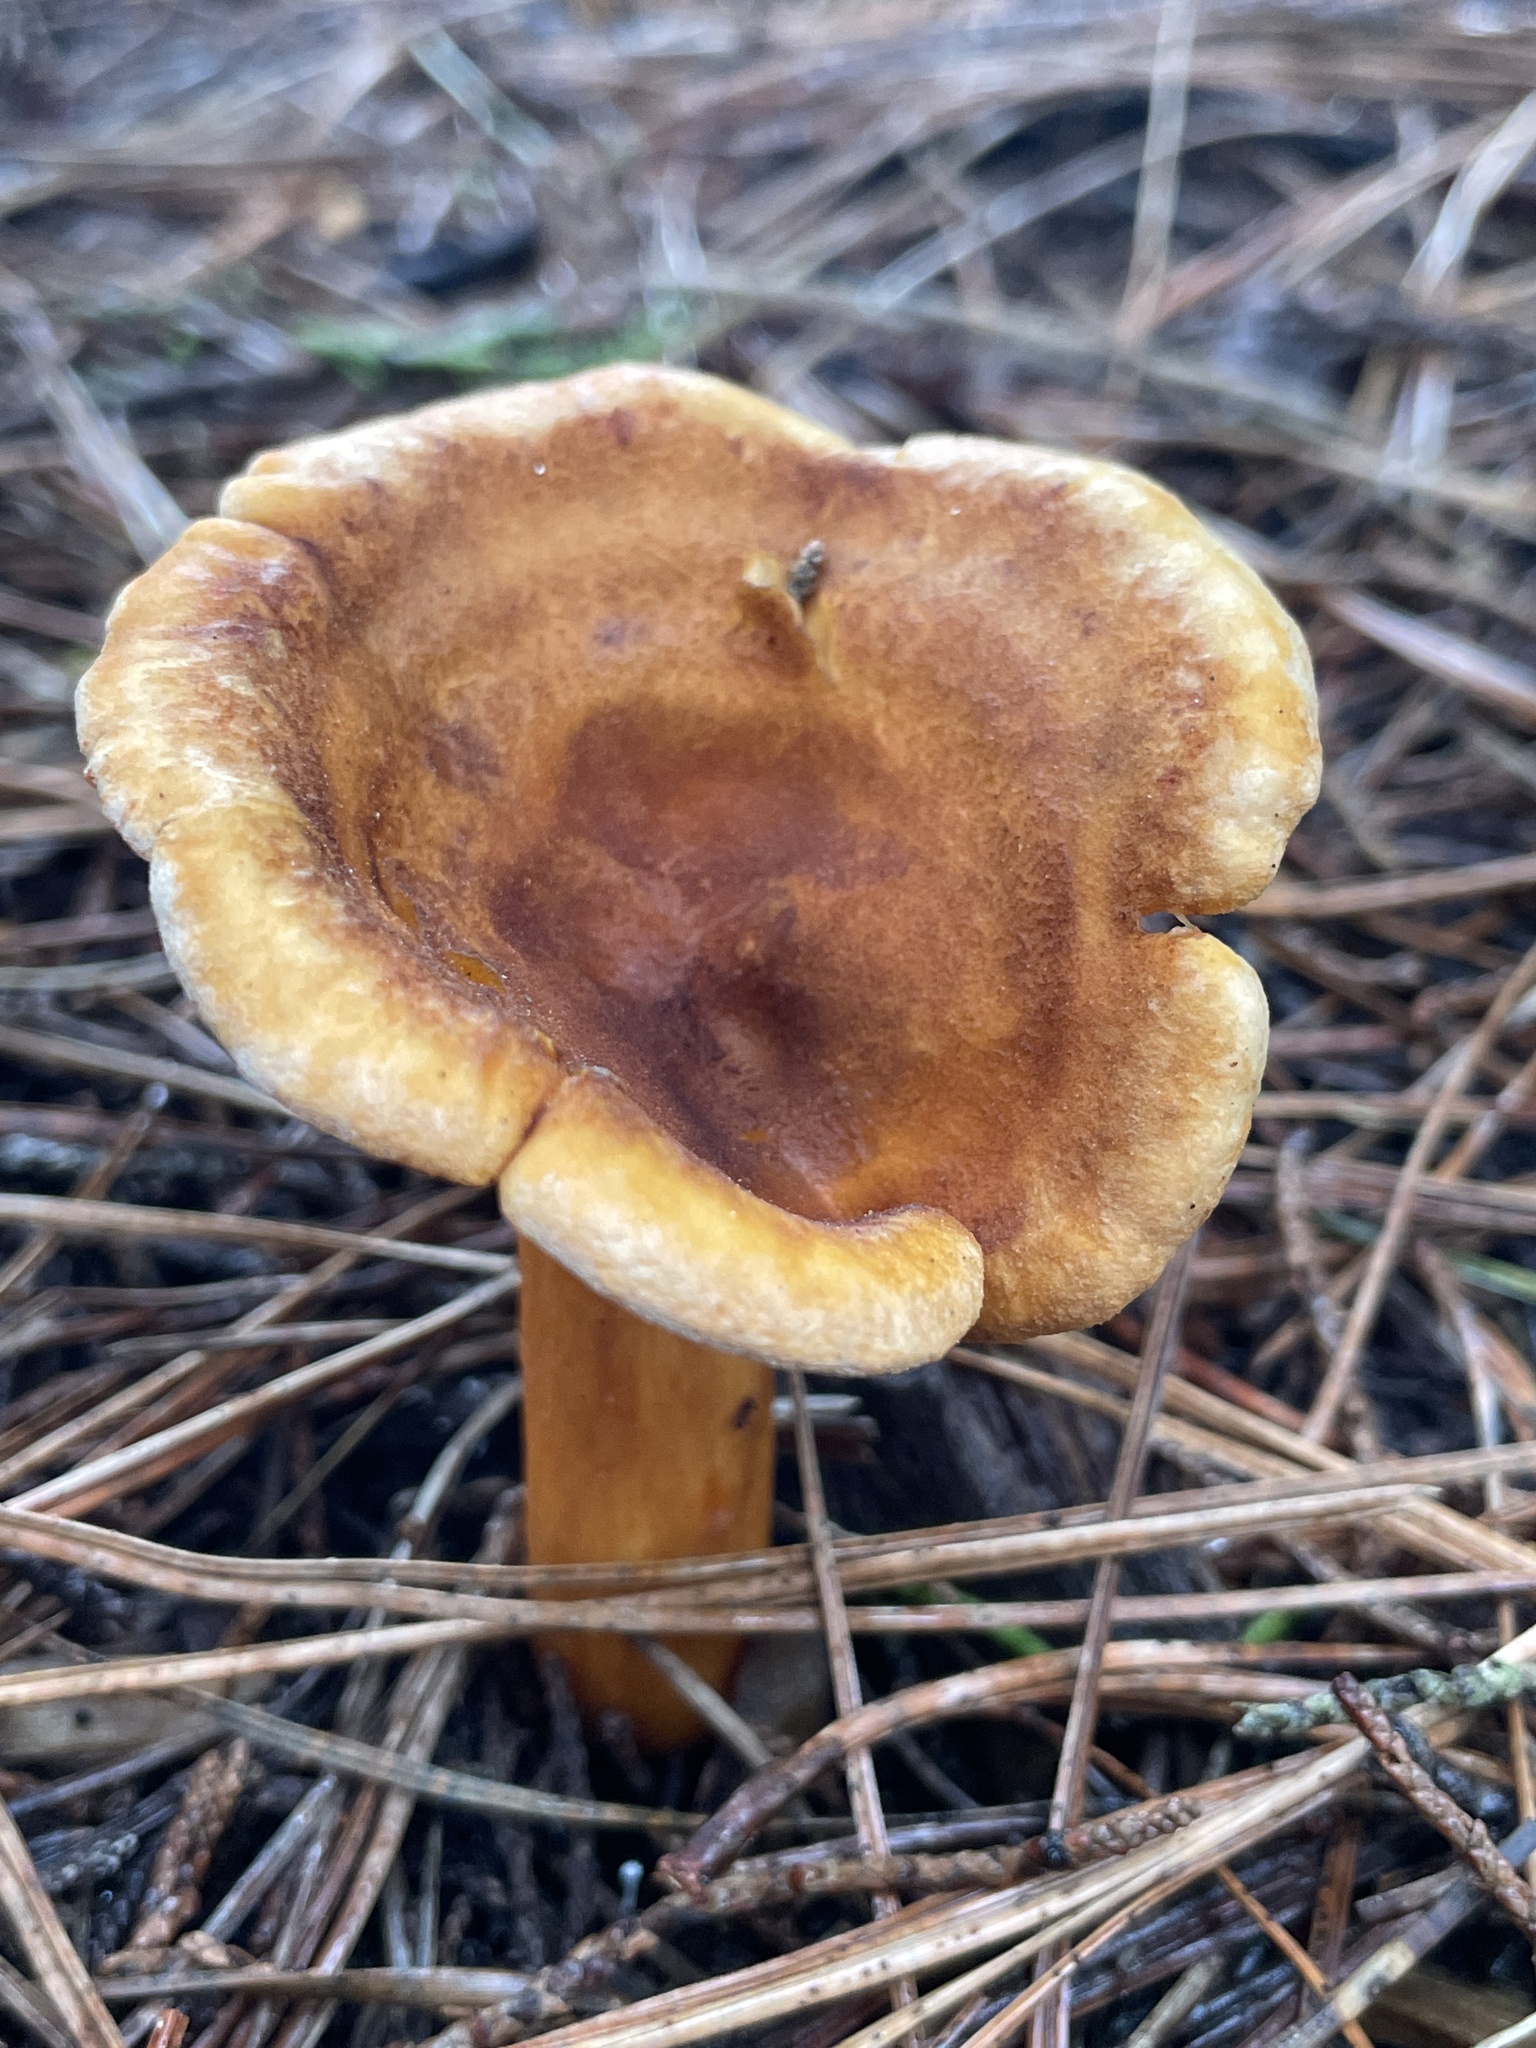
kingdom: Fungi
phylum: Basidiomycota
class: Agaricomycetes
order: Boletales
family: Hygrophoropsidaceae
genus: Hygrophoropsis
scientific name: Hygrophoropsis aurantiaca
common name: False chanterelle
